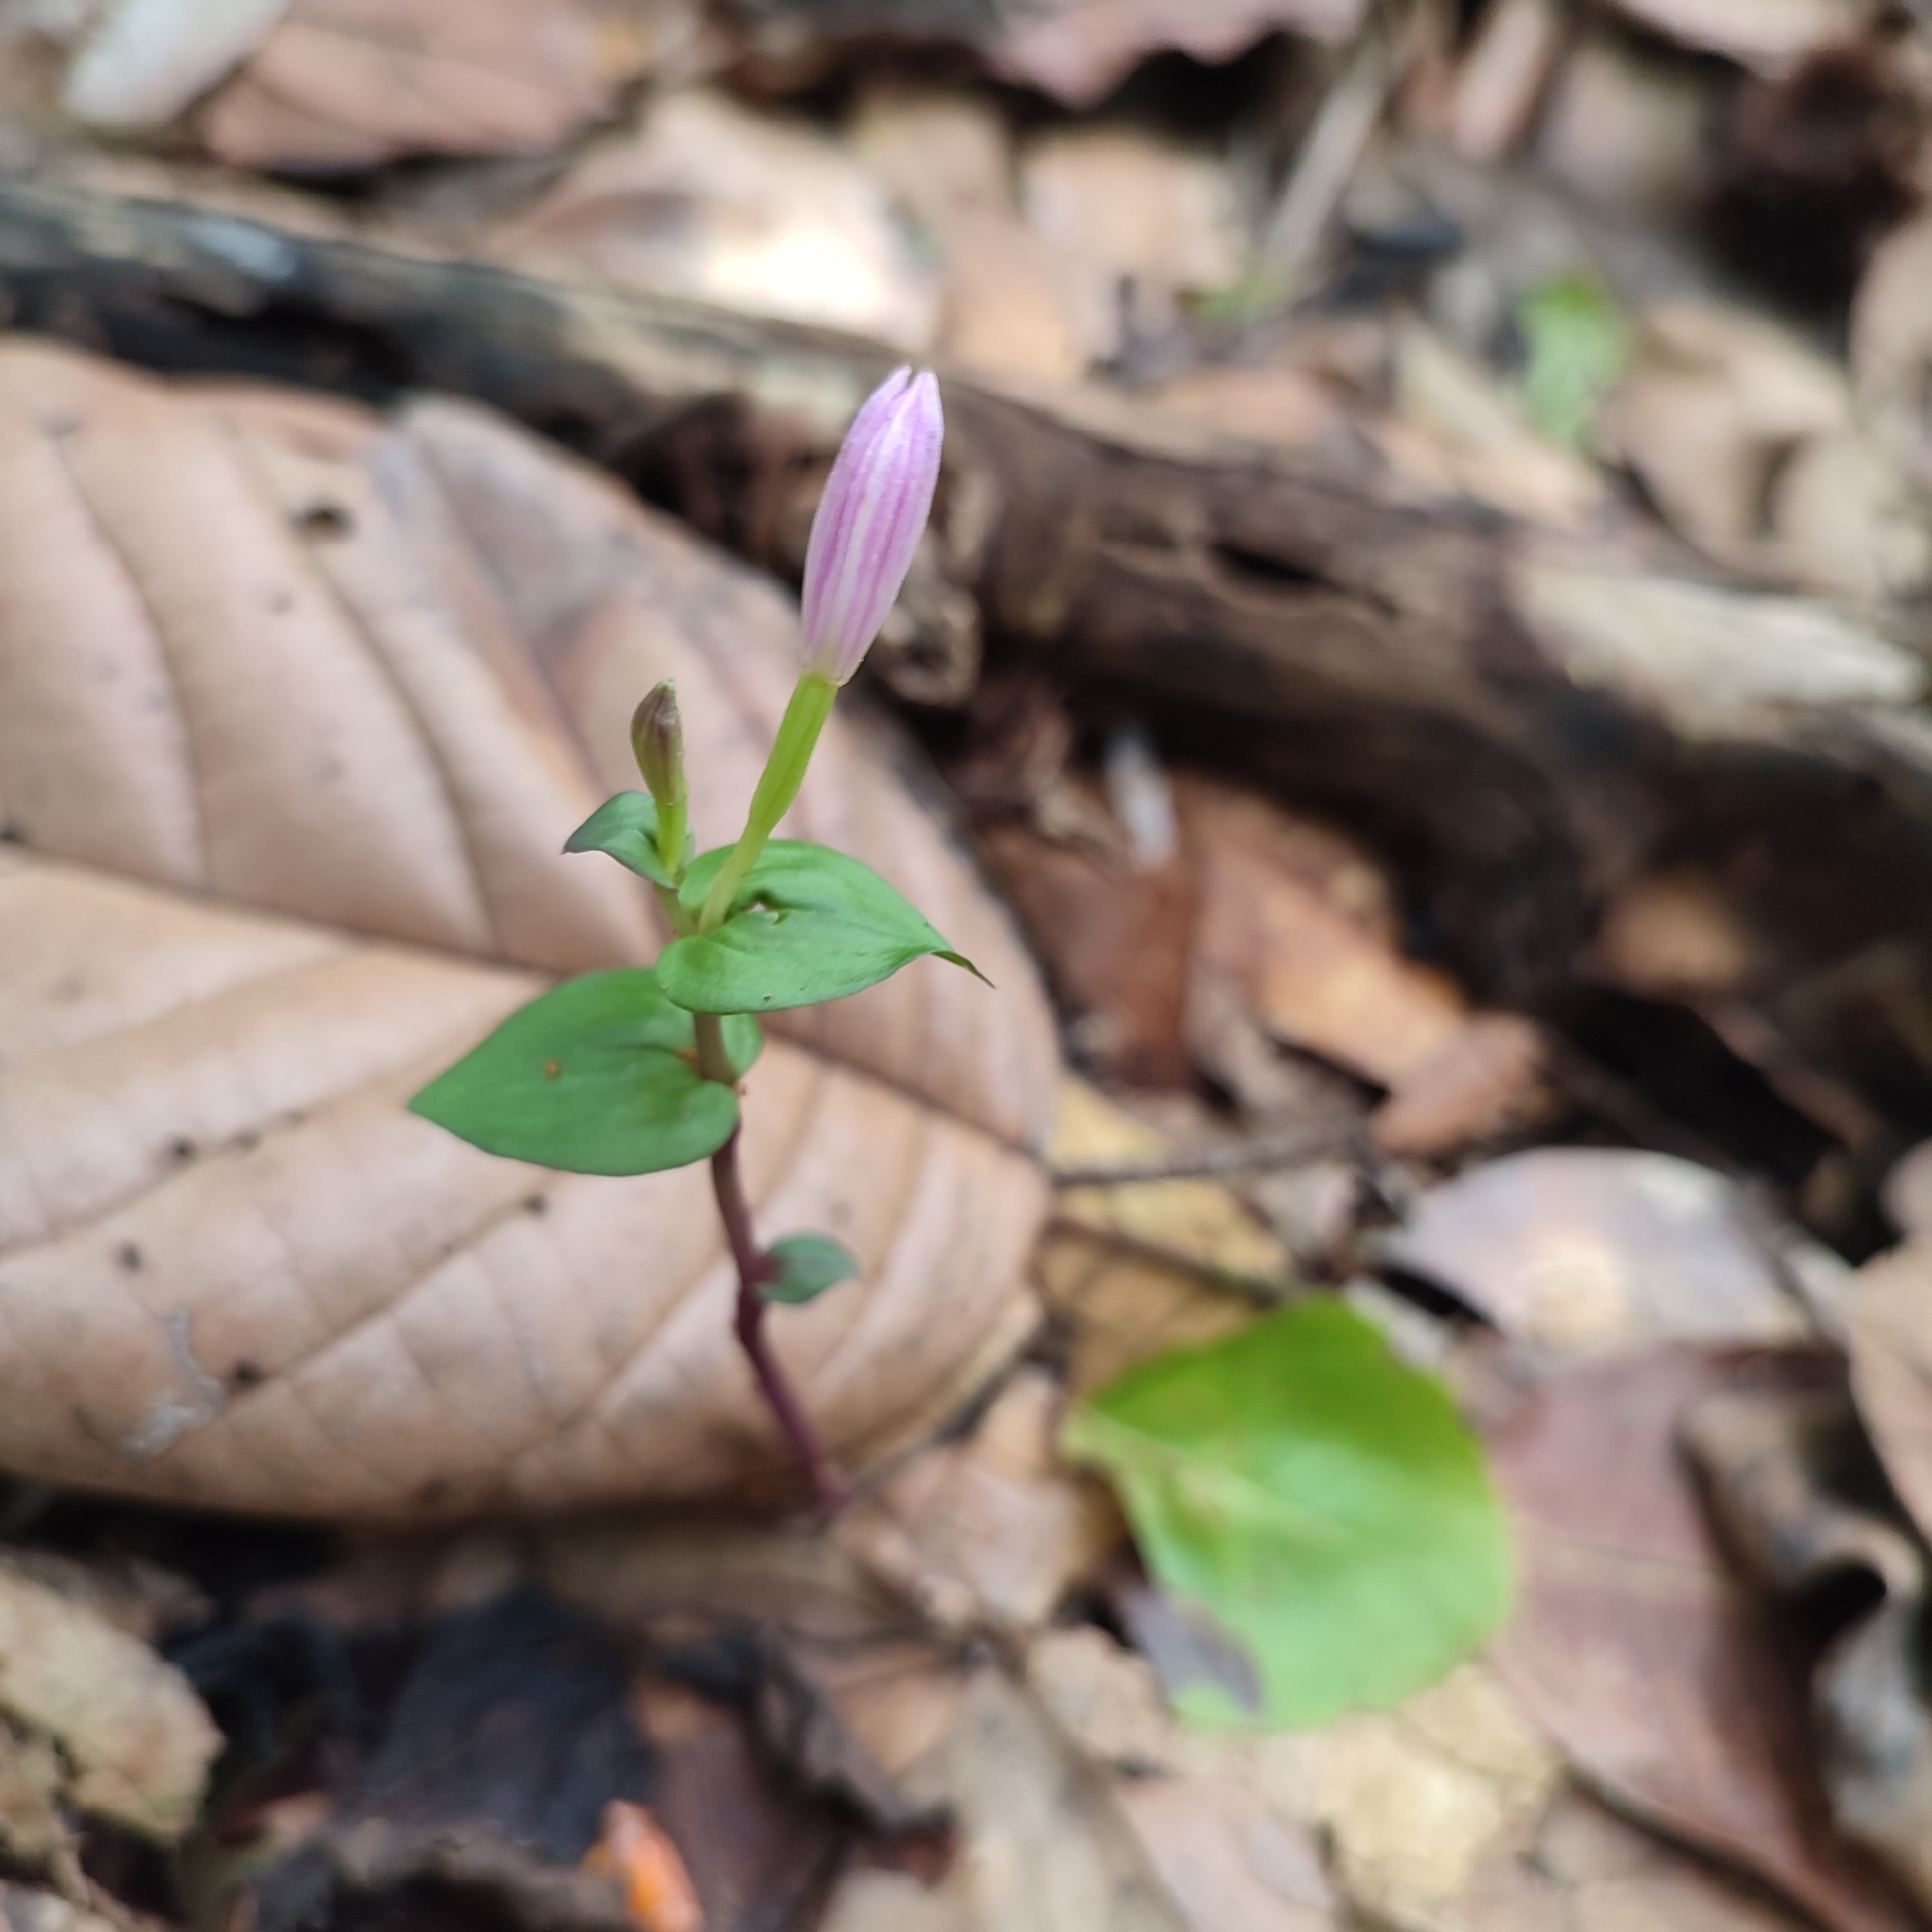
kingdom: Plantae
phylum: Tracheophyta
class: Liliopsida
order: Asparagales
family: Orchidaceae
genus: Triphora
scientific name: Triphora surinamensis
